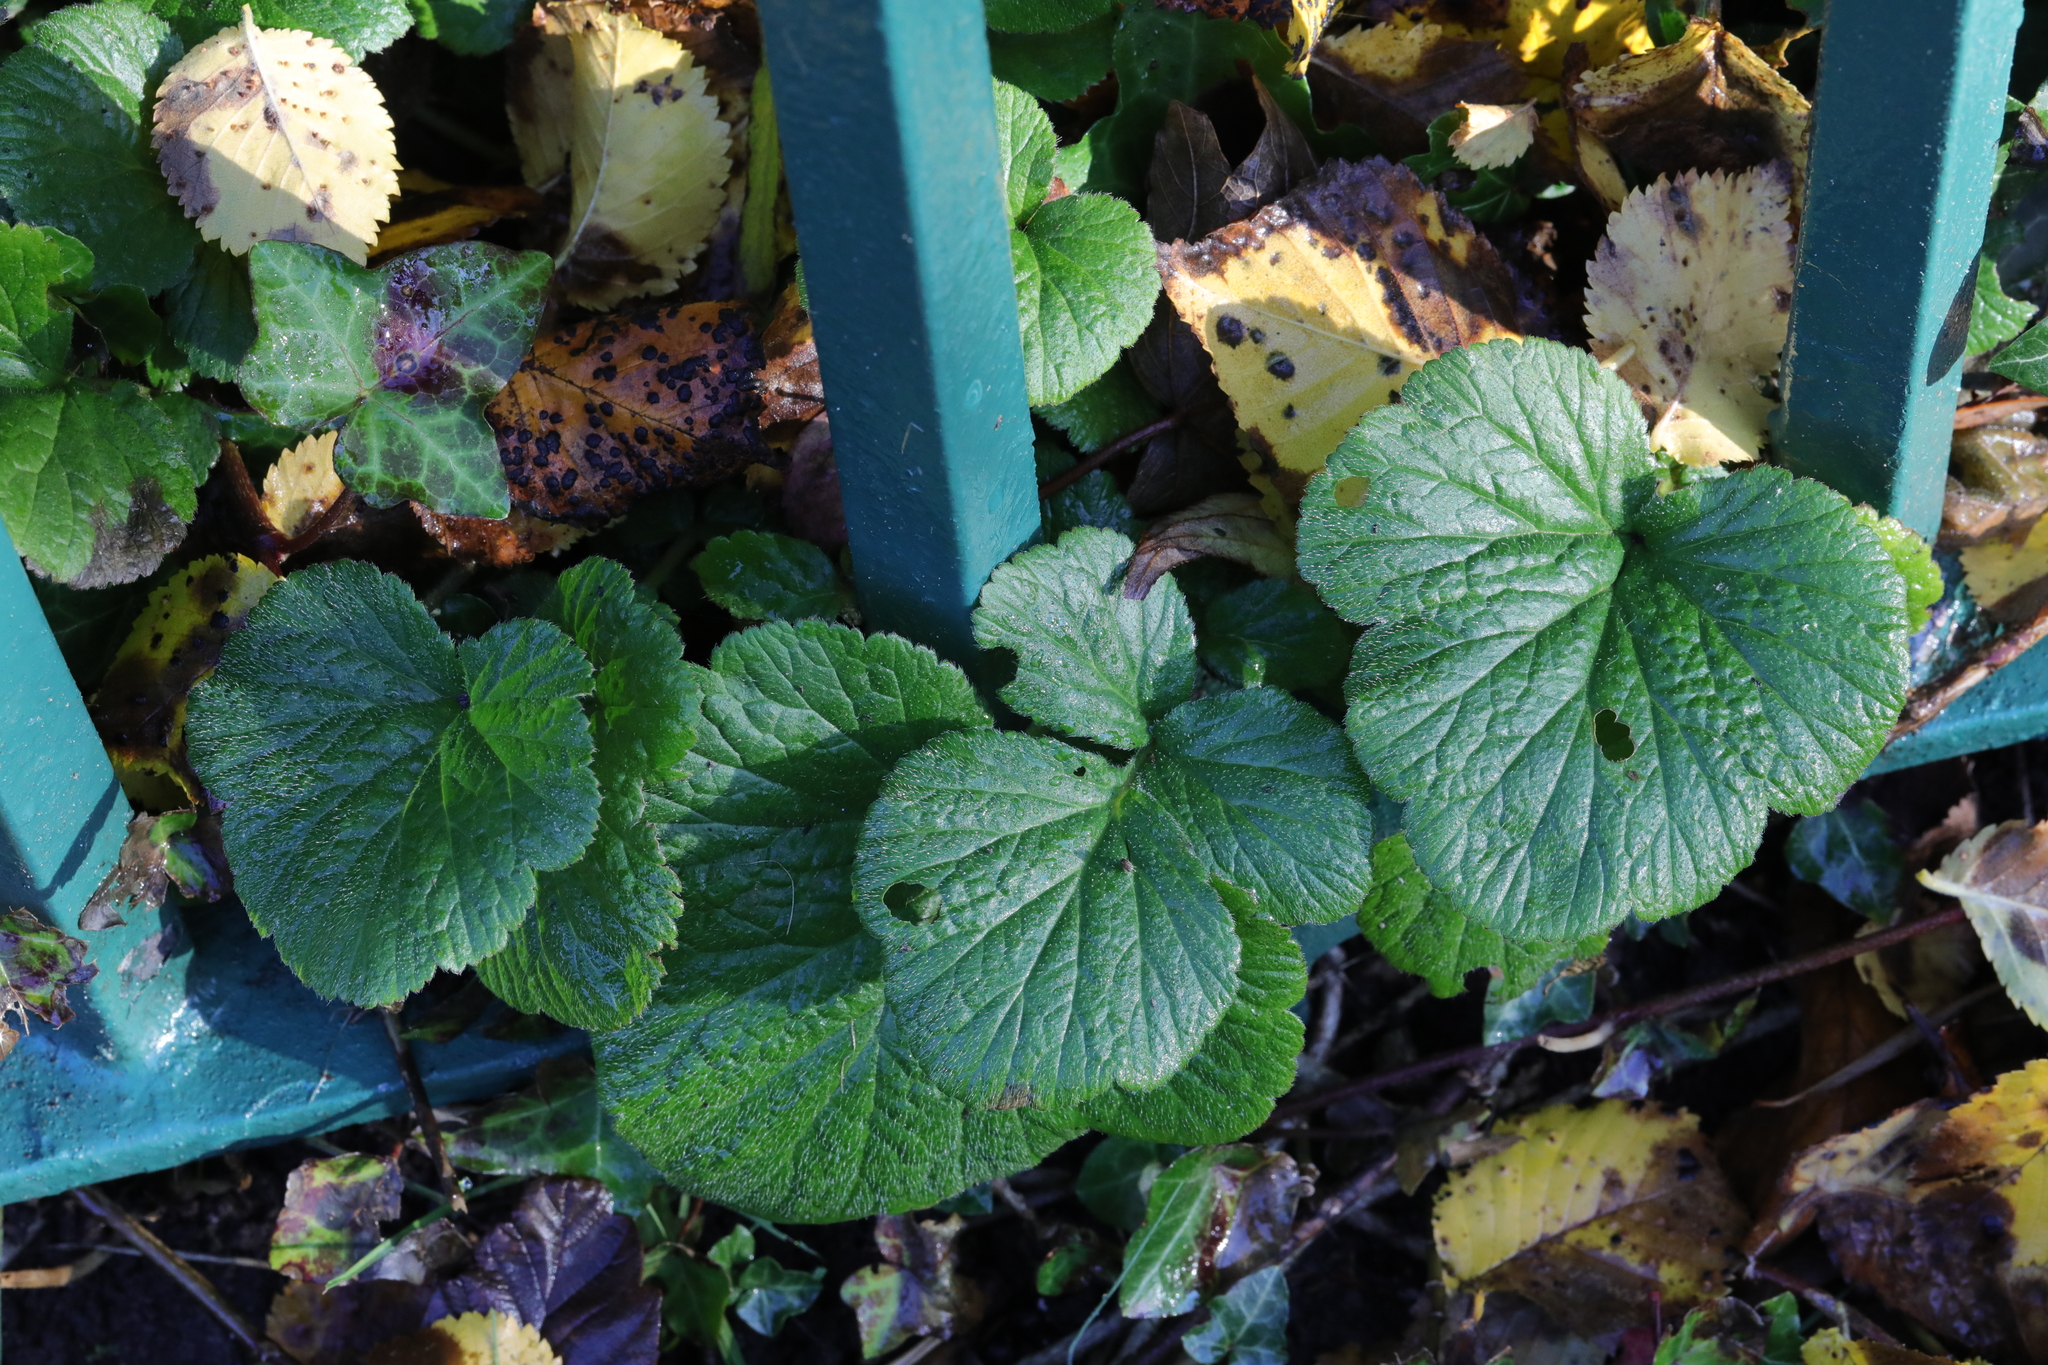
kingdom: Plantae
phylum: Tracheophyta
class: Magnoliopsida
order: Rosales
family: Rosaceae
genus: Geum
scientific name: Geum urbanum
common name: Wood avens
